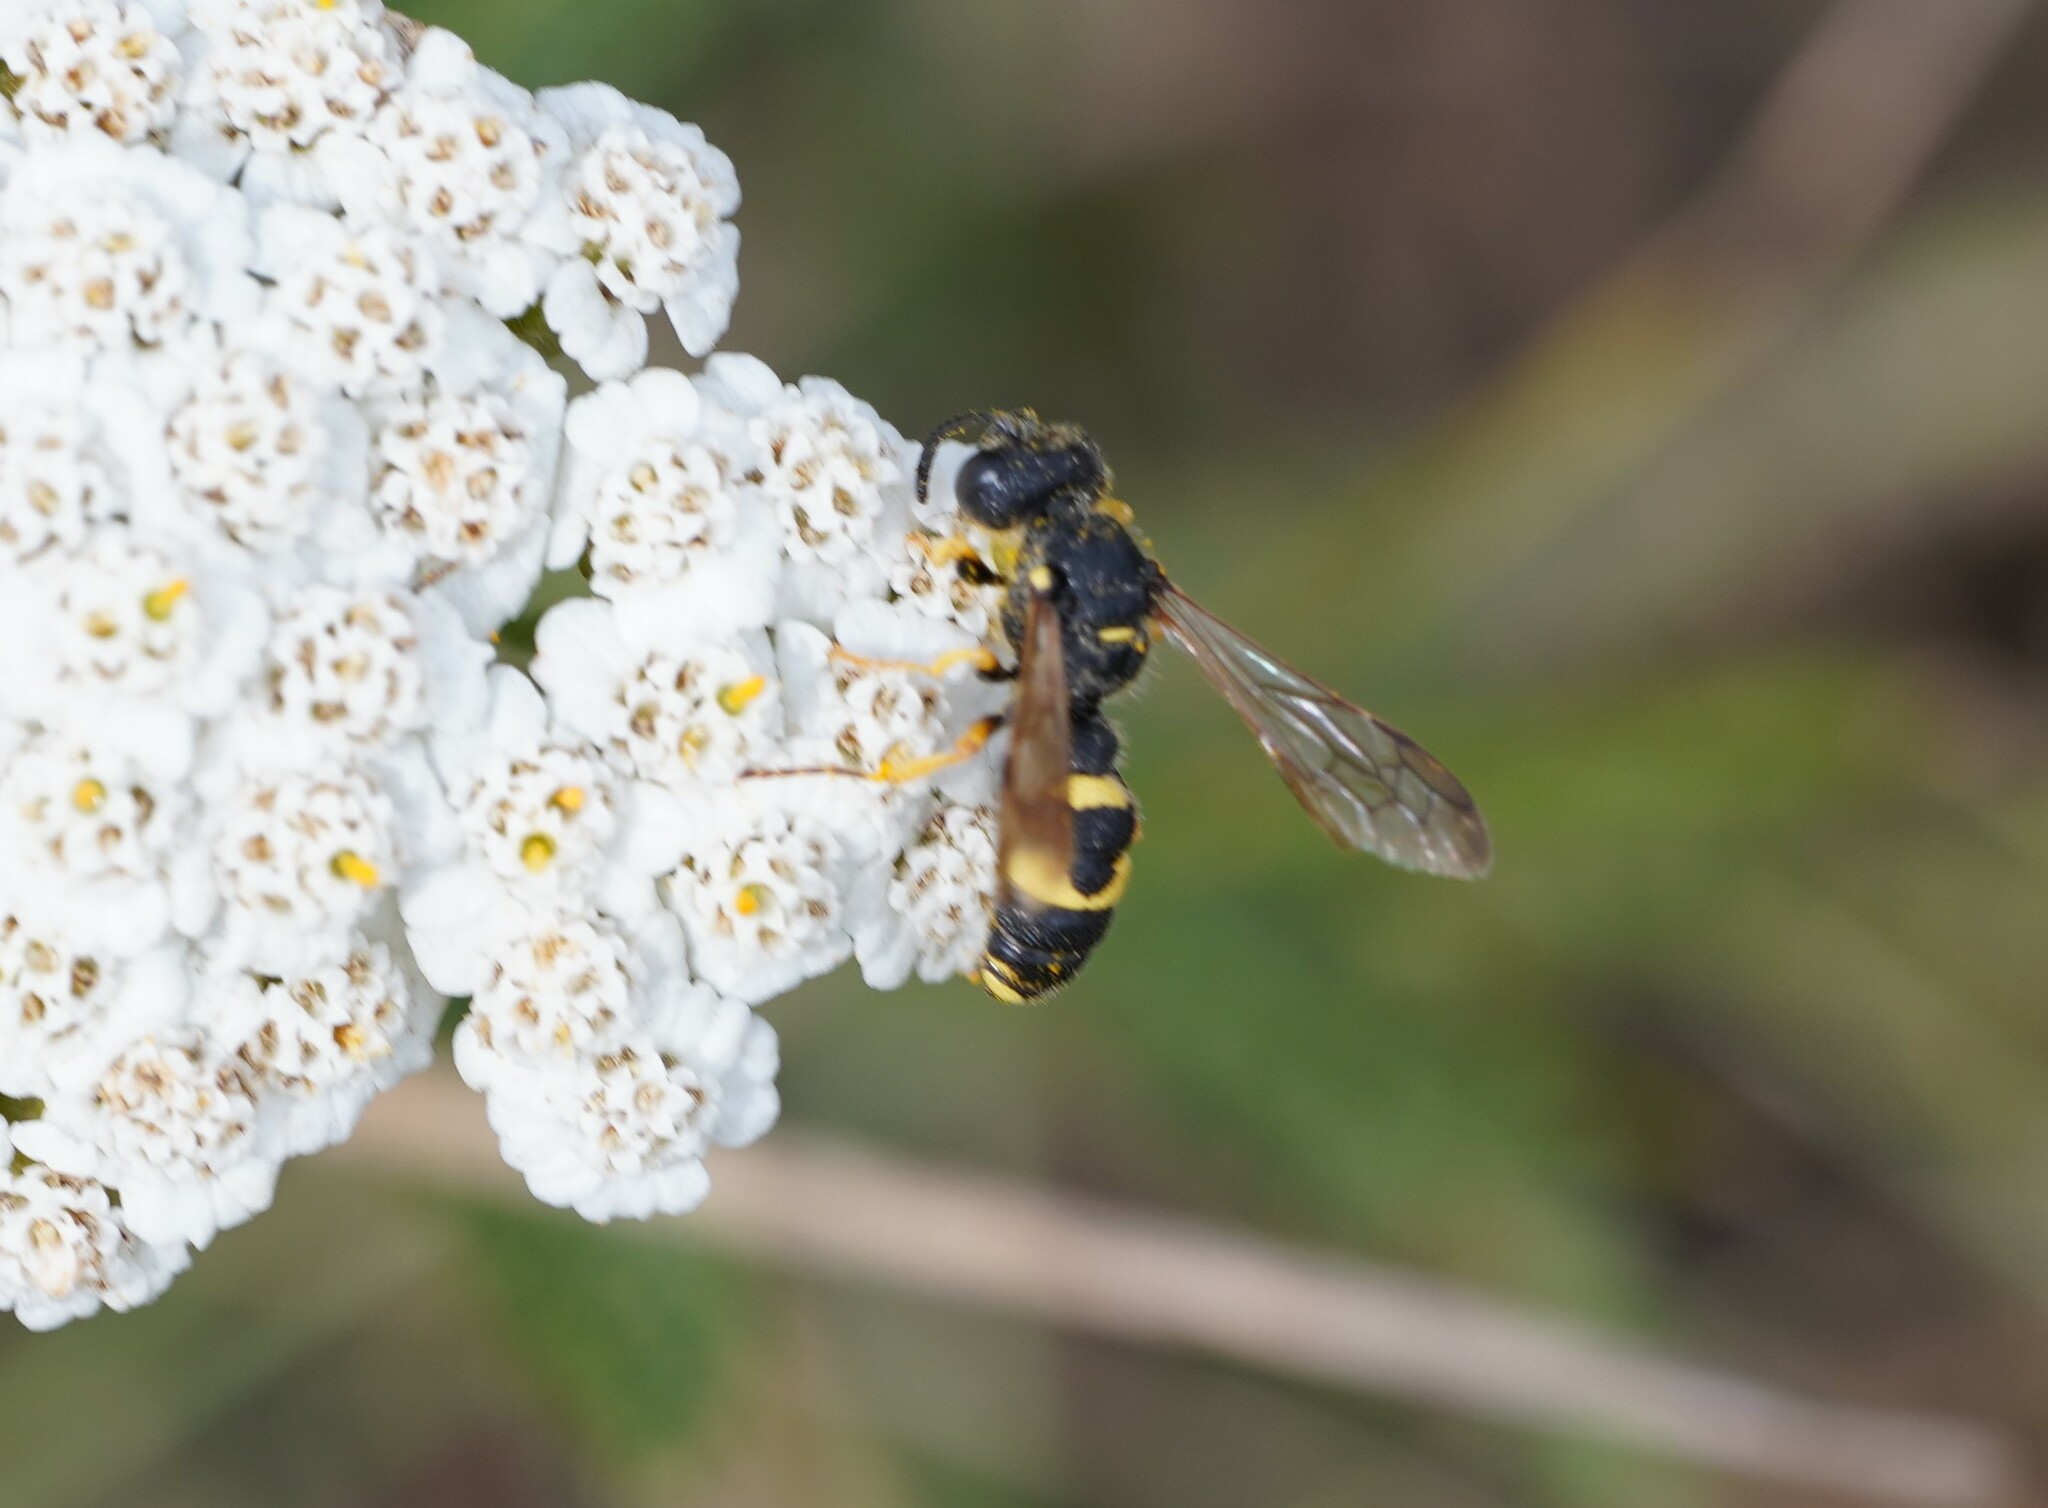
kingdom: Animalia
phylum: Arthropoda
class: Insecta
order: Hymenoptera
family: Crabronidae
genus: Cerceris
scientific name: Cerceris rybyensis
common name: Ornate tailed digger wasp
